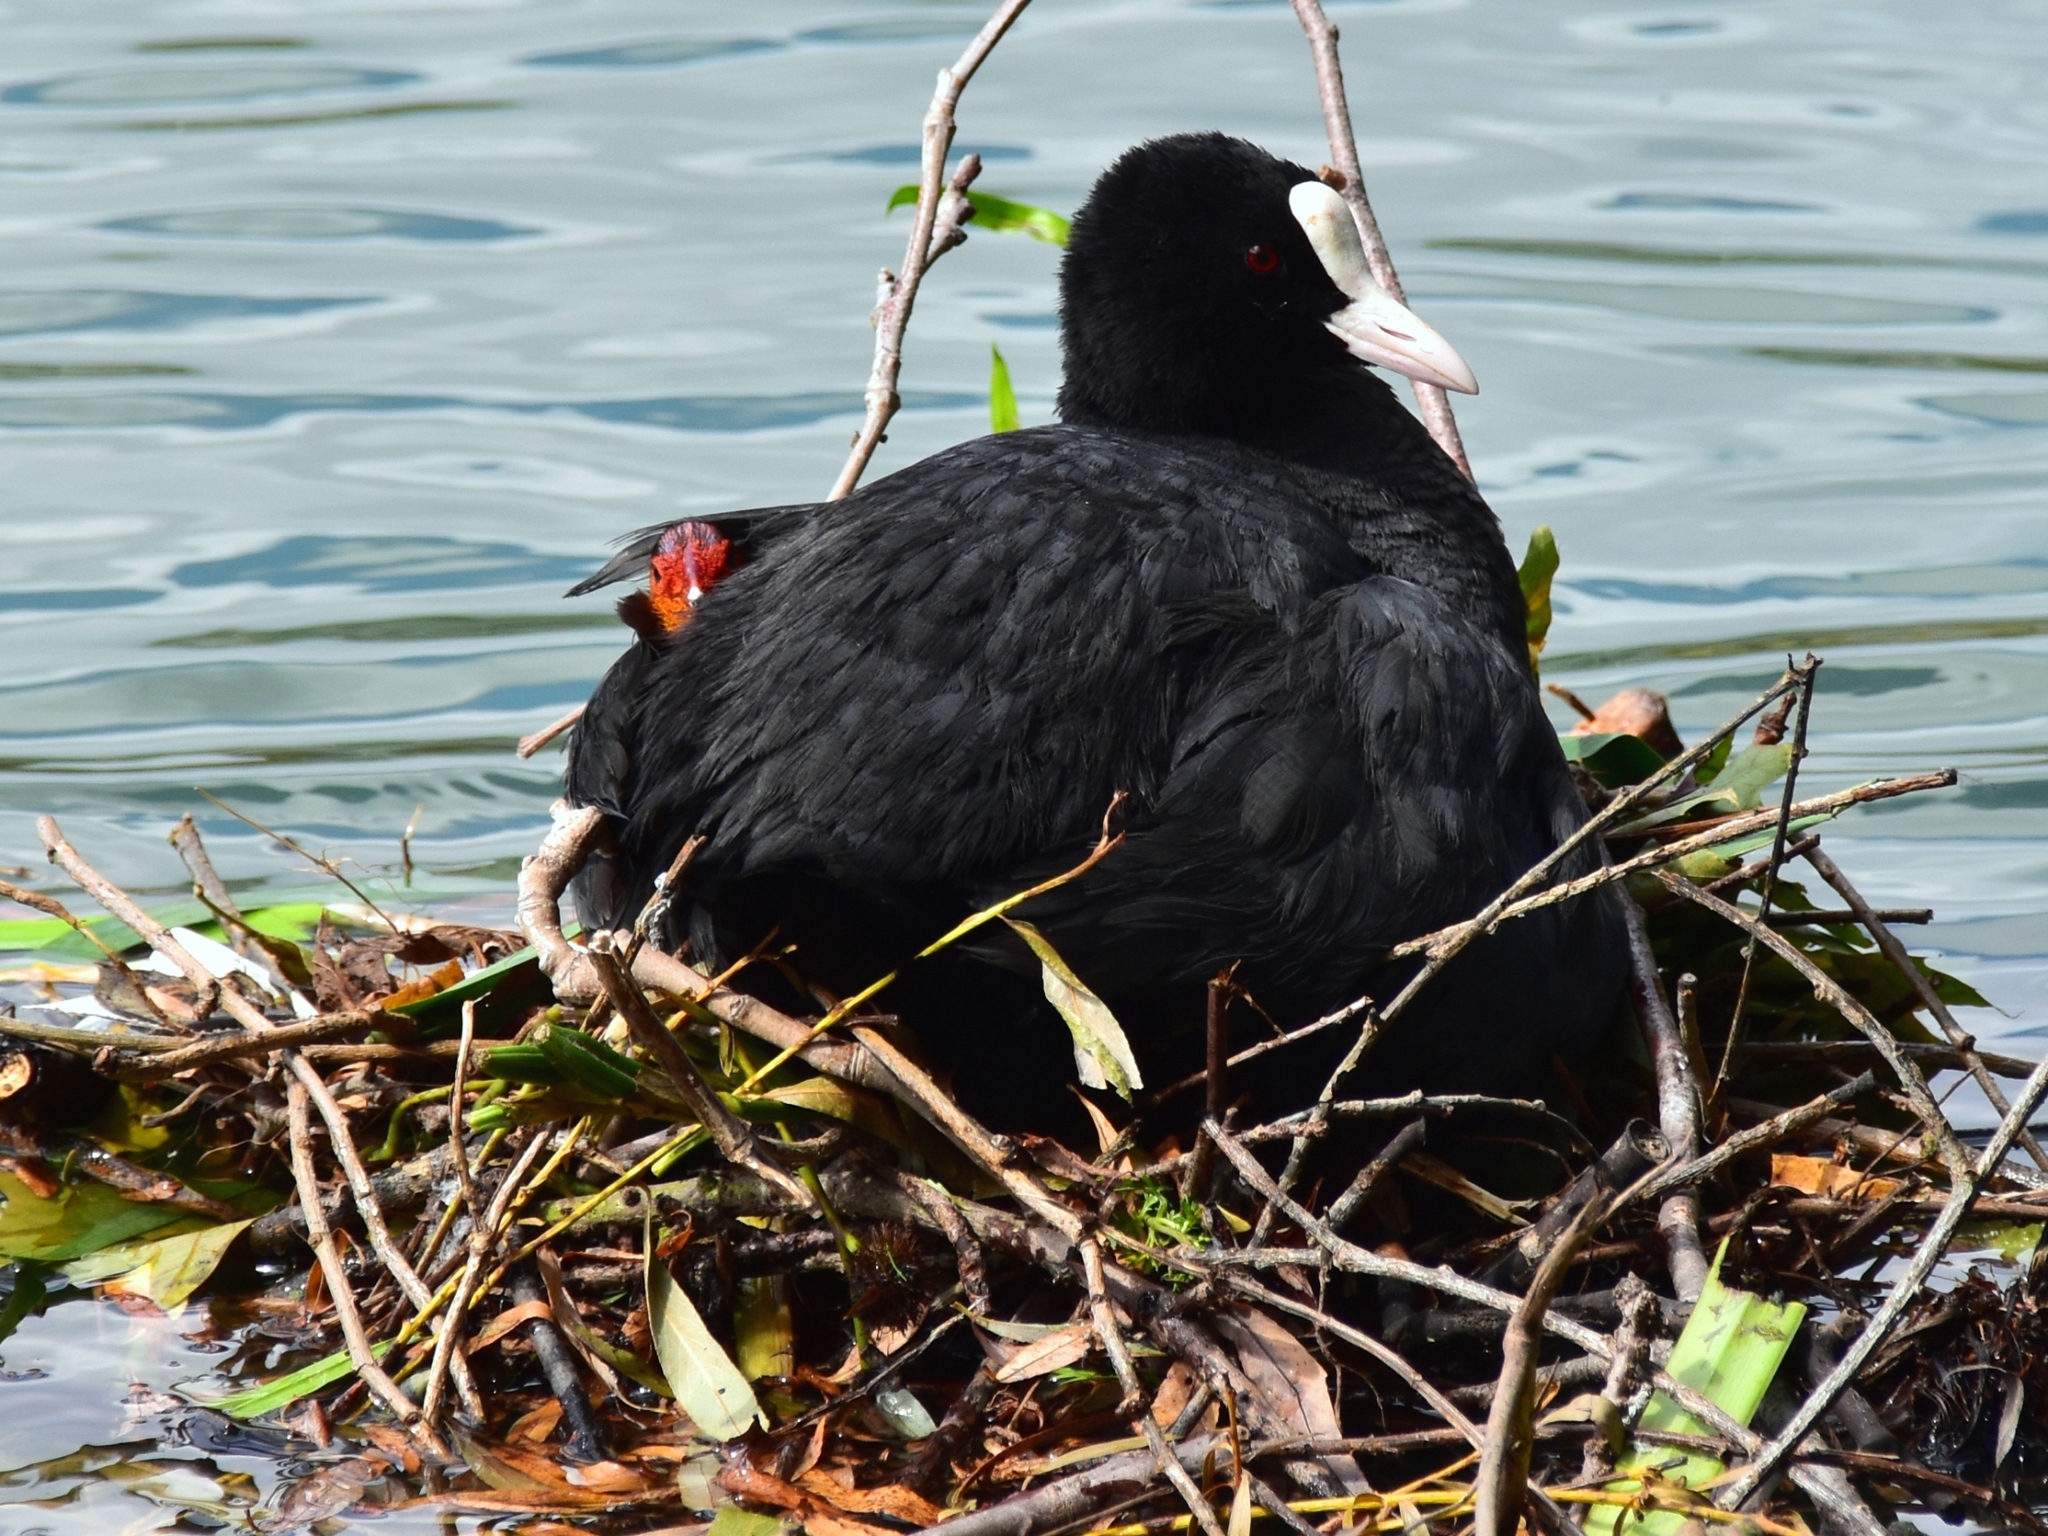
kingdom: Animalia
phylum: Chordata
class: Aves
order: Gruiformes
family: Rallidae
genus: Fulica
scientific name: Fulica atra
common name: Eurasian coot
